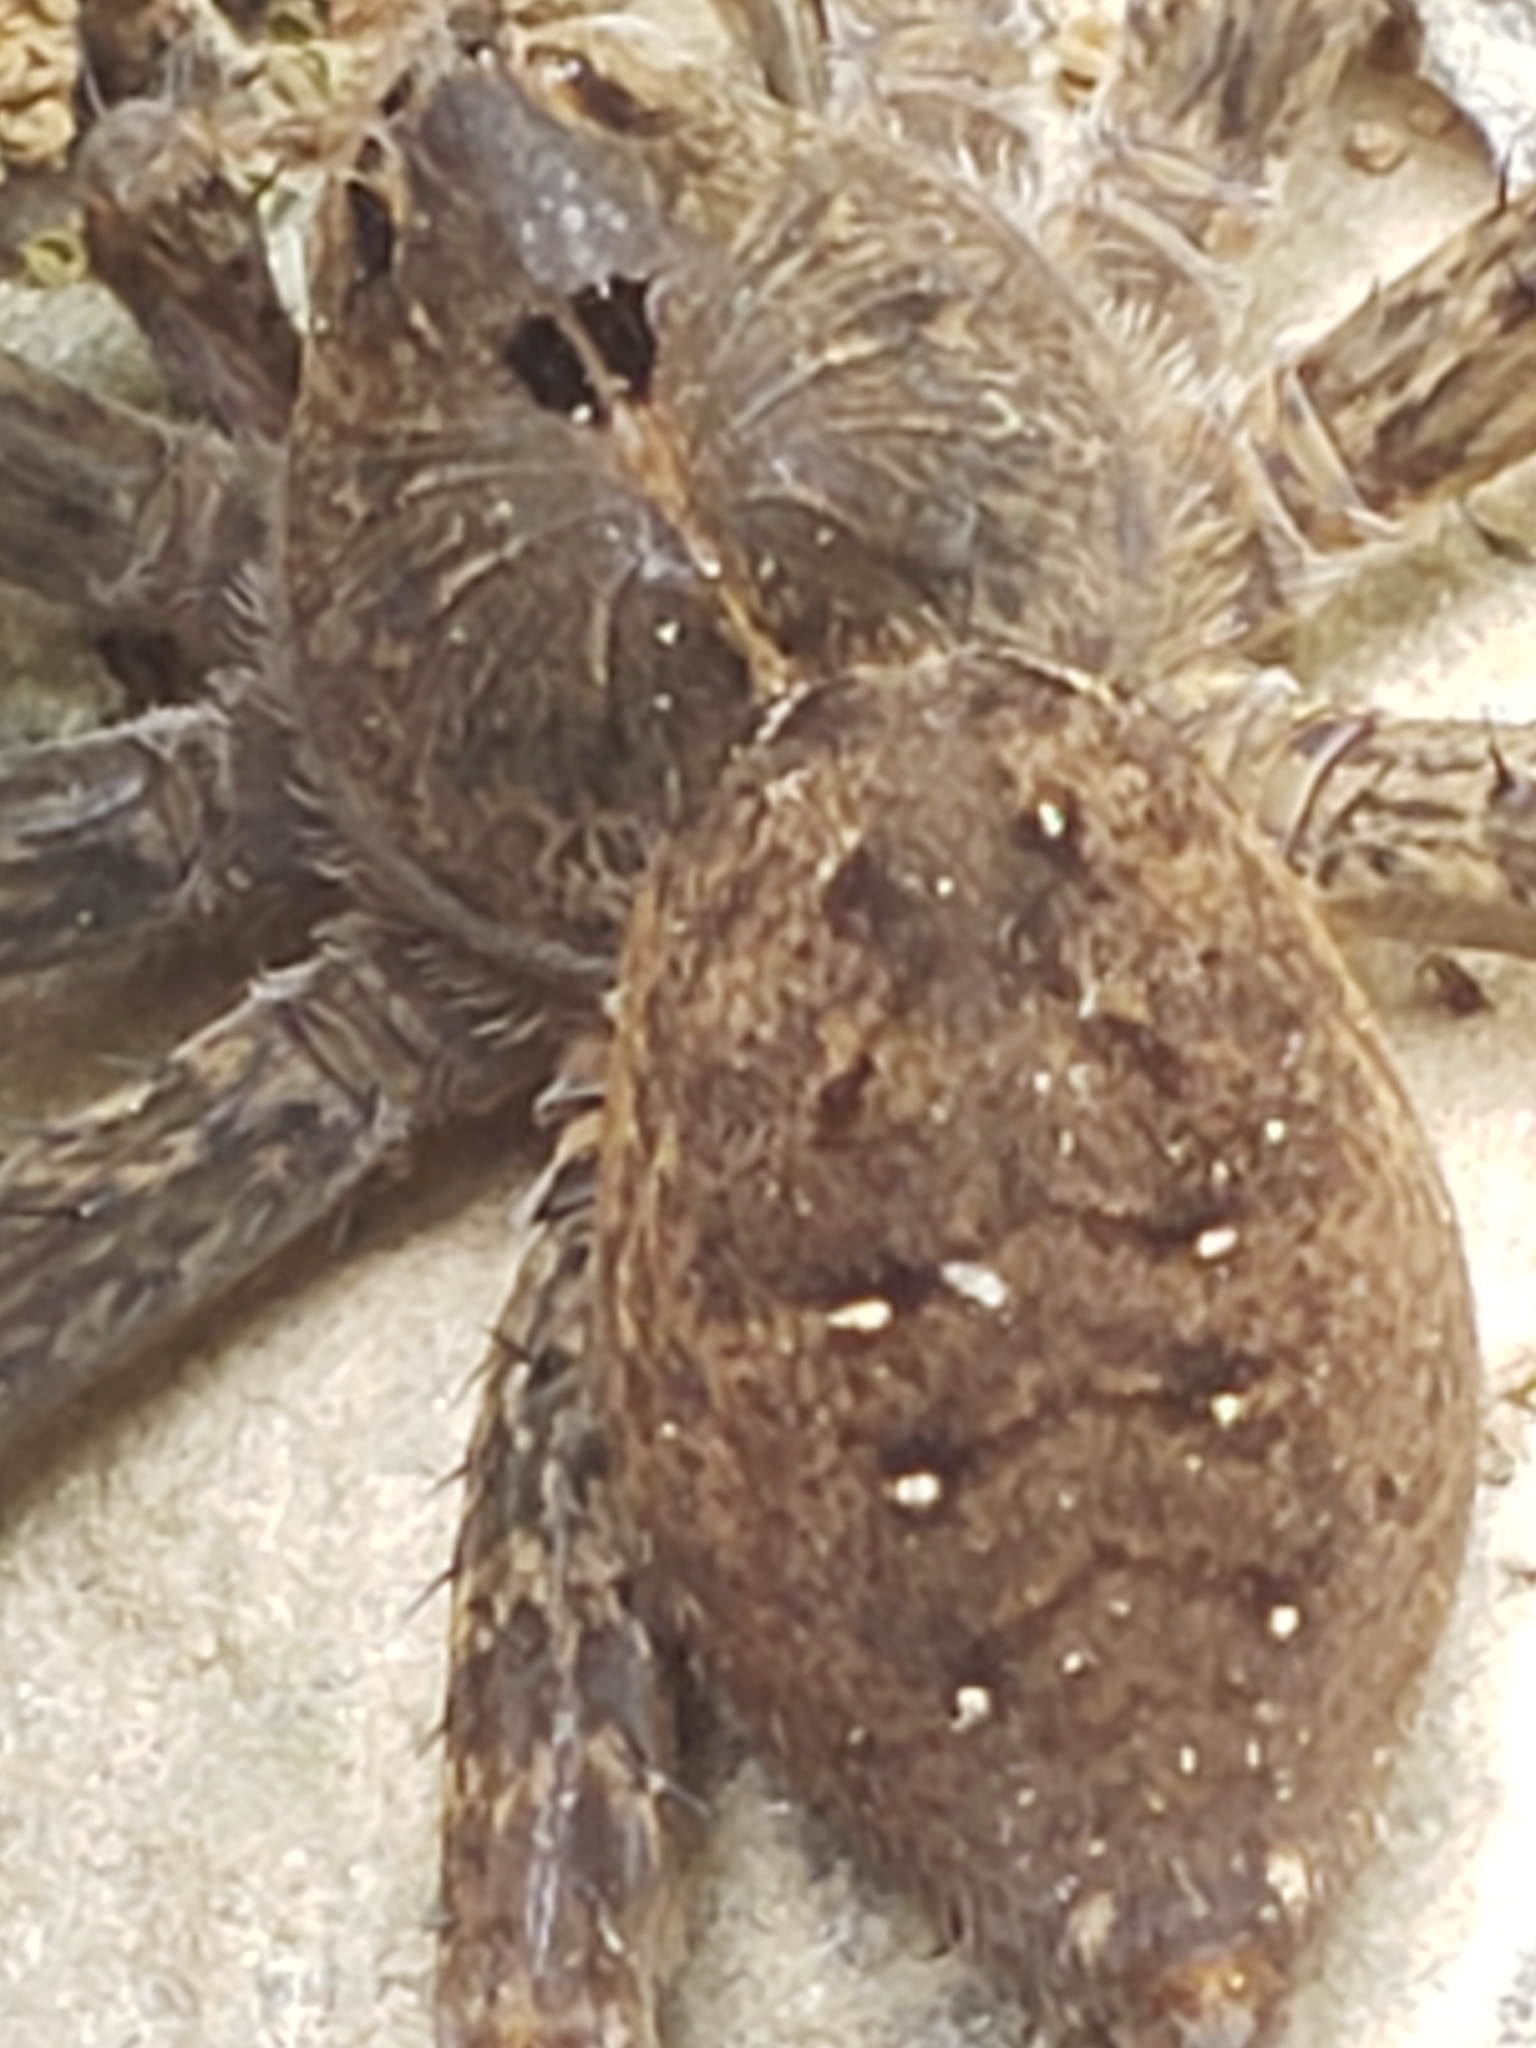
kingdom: Animalia
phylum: Arthropoda
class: Arachnida
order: Araneae
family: Pisauridae
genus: Dolomedes
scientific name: Dolomedes vittatus
